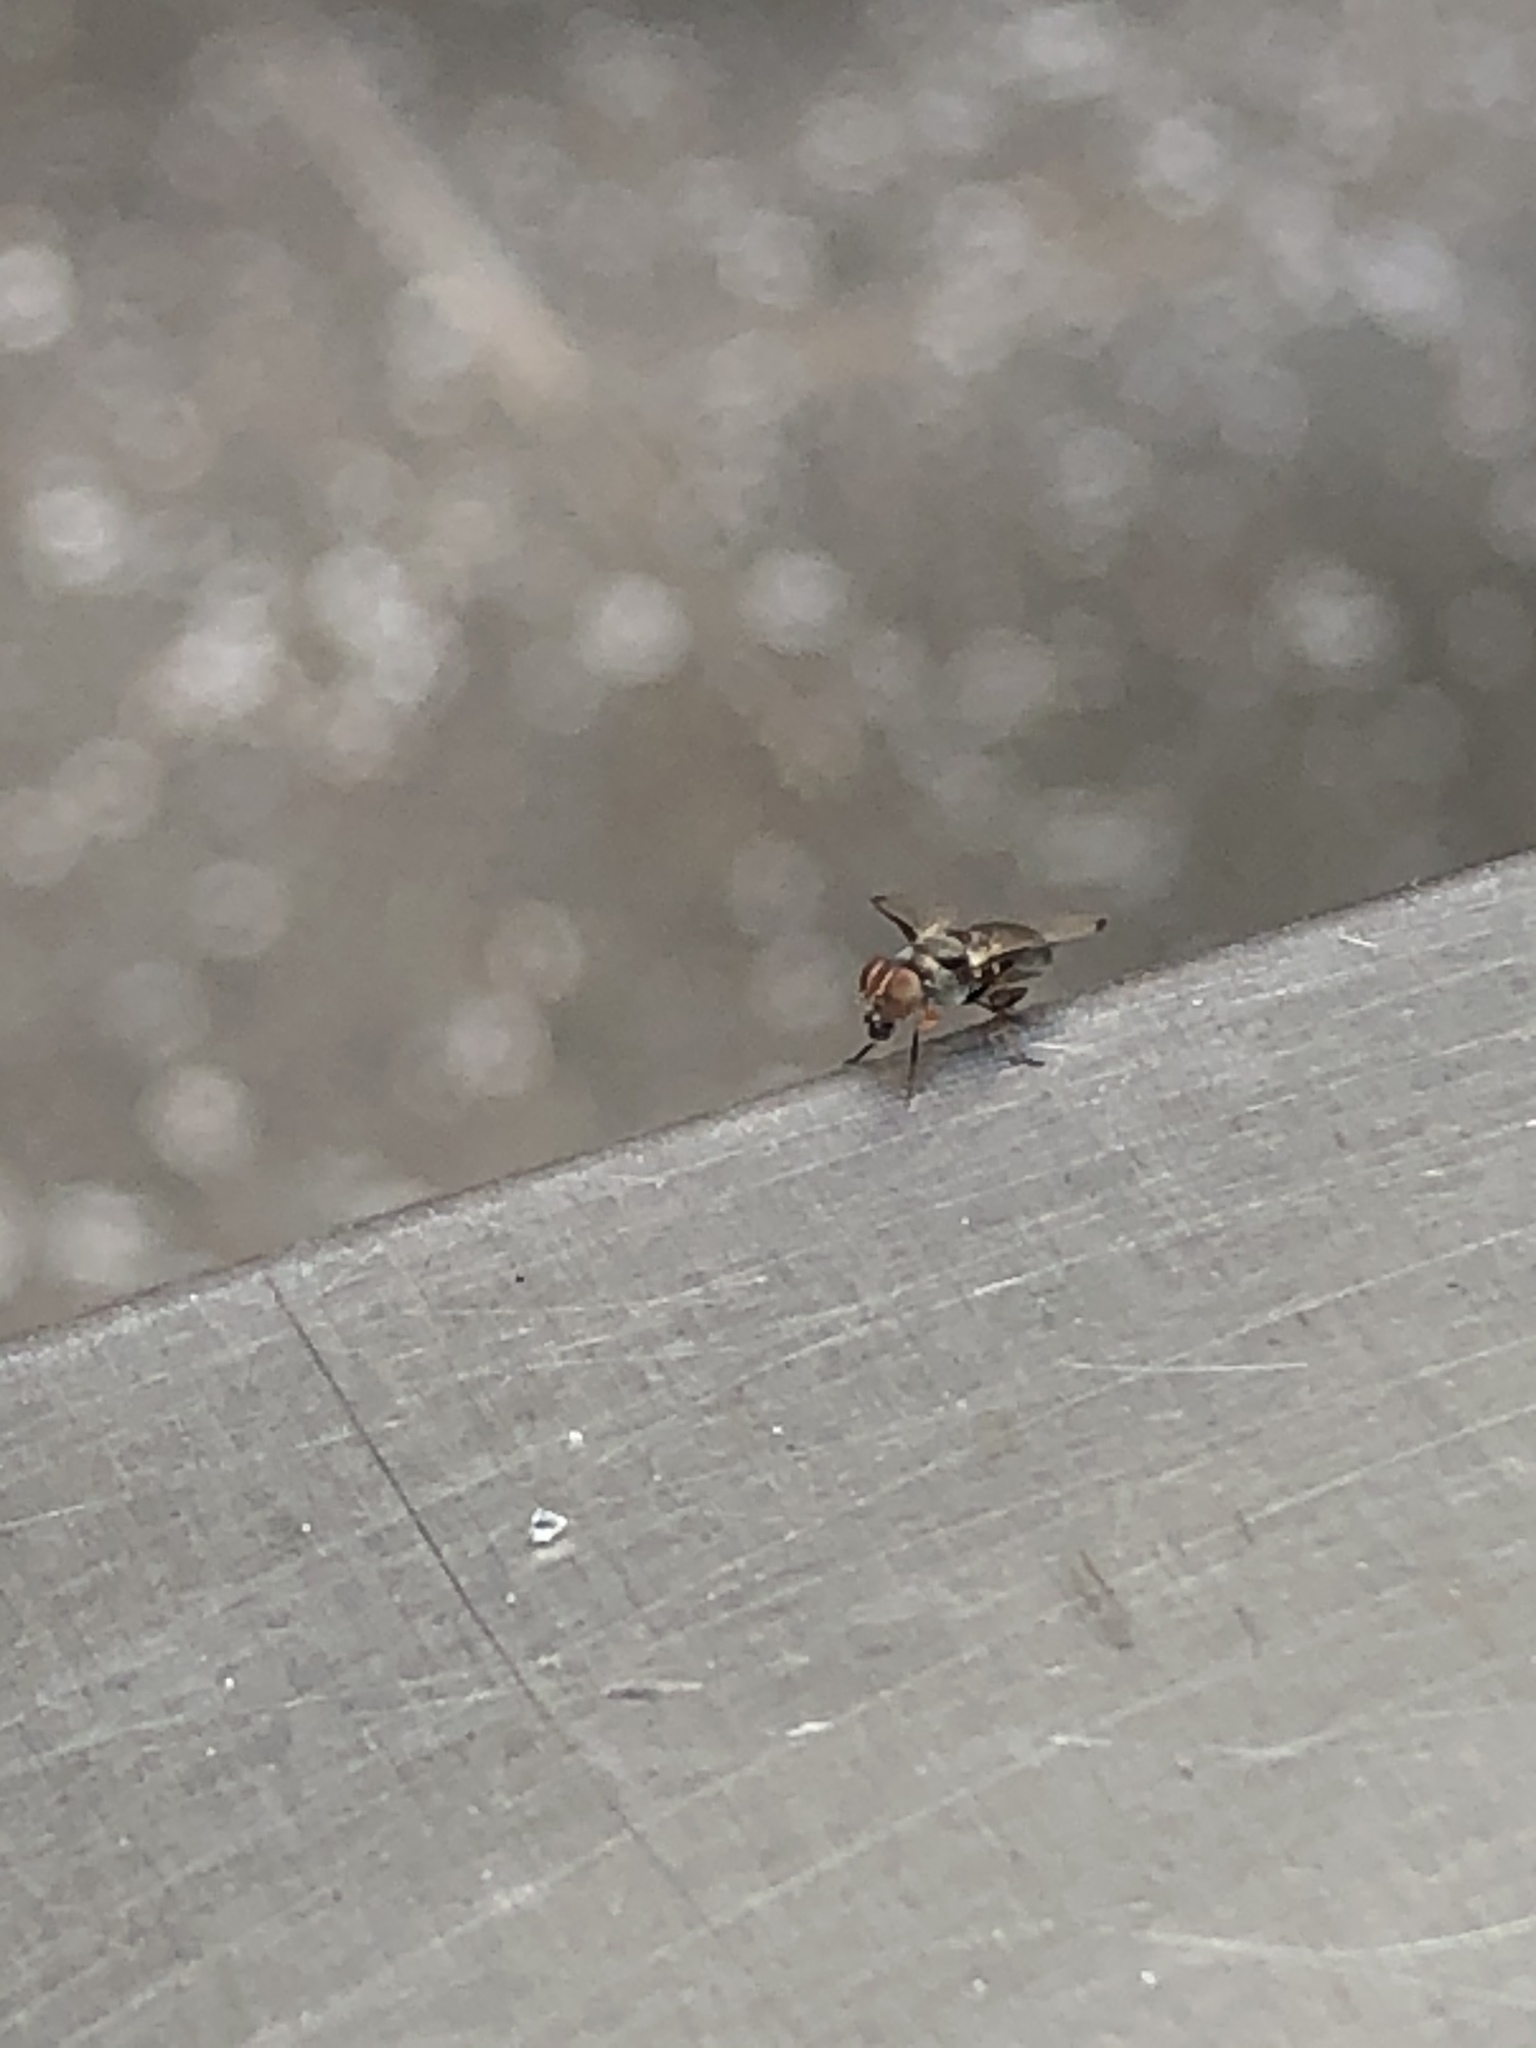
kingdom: Animalia
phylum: Arthropoda
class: Insecta
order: Diptera
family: Platystomatidae
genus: Pogonortalis
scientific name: Pogonortalis doclea
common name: Boatman fly
